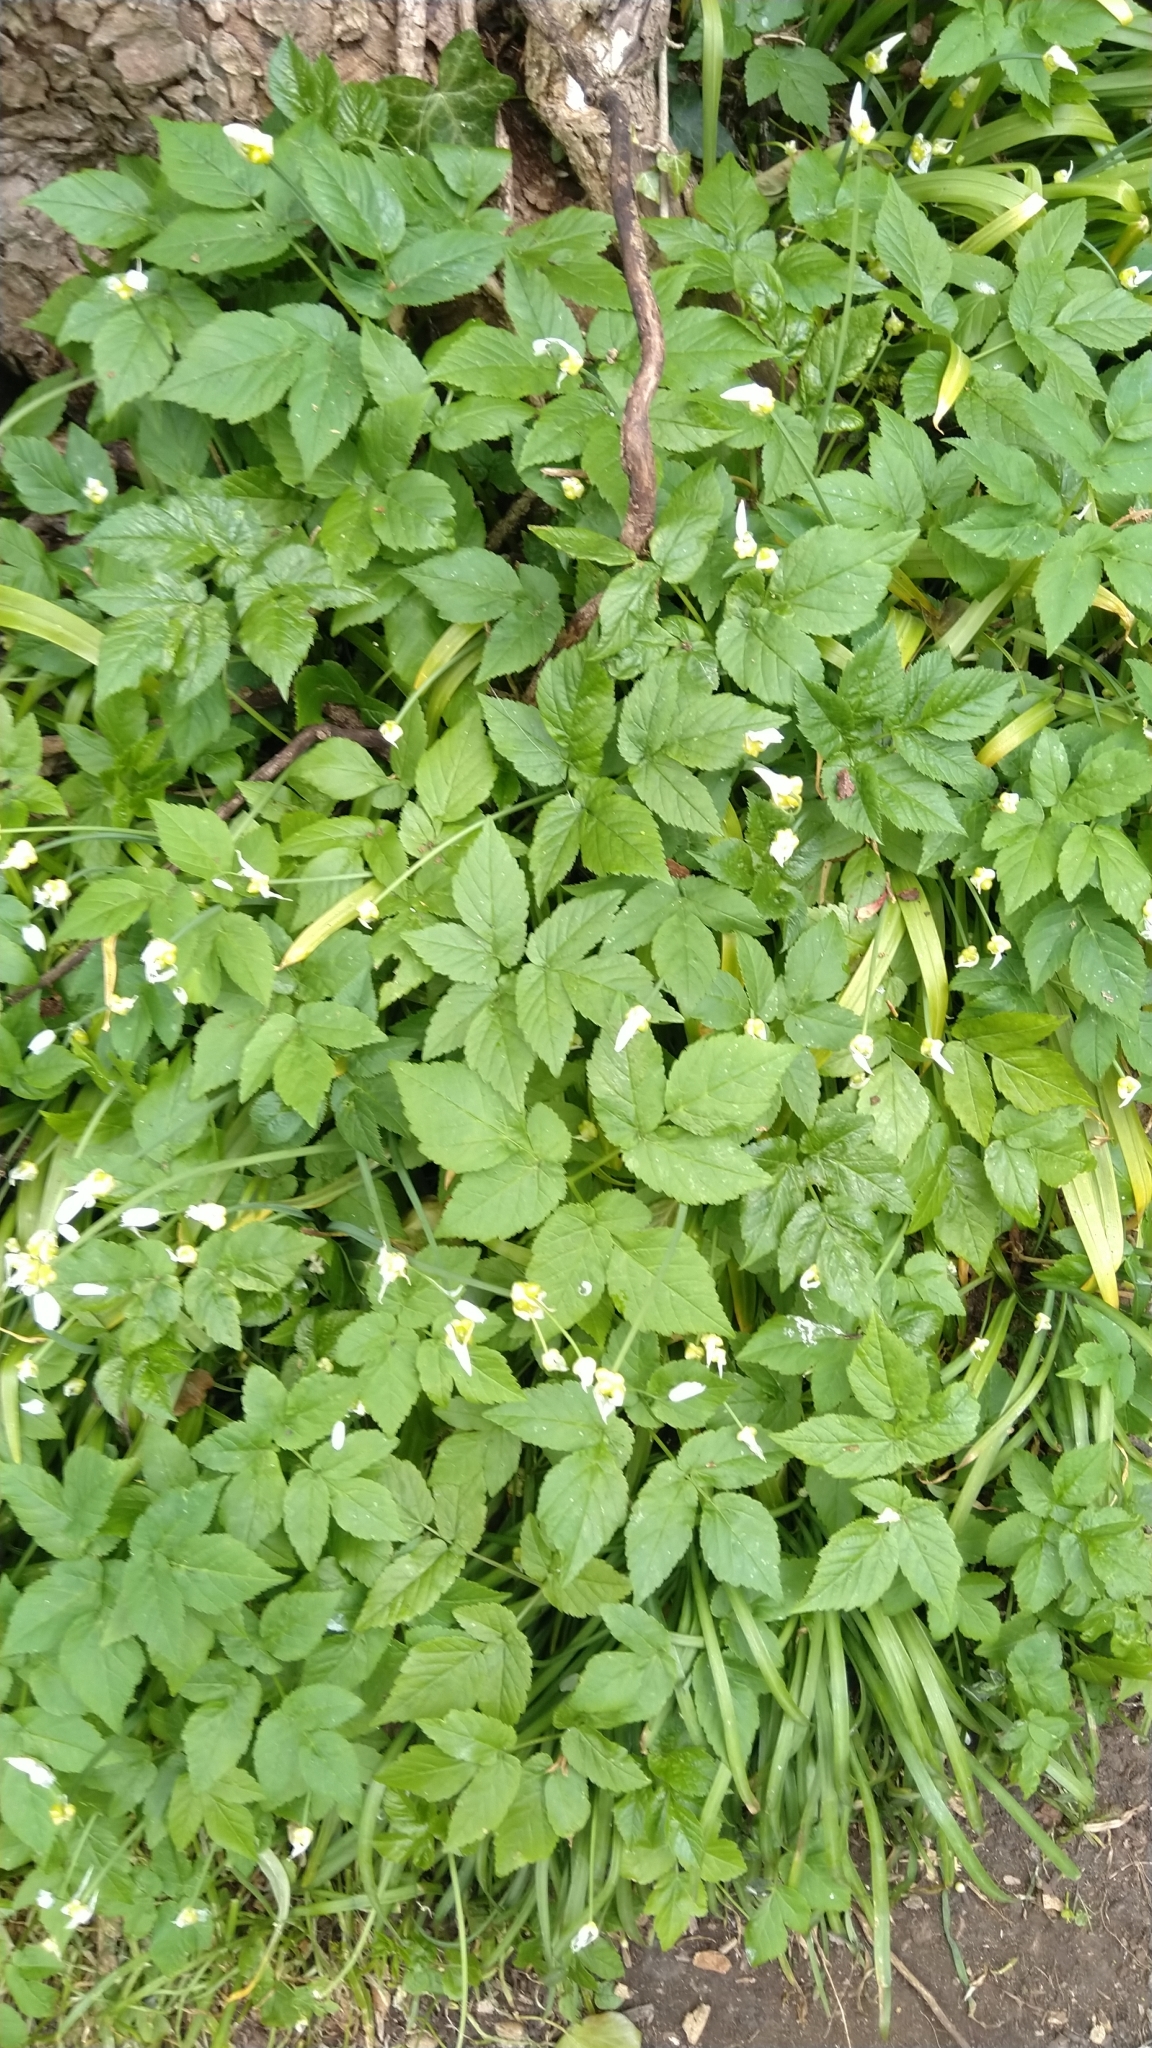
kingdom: Plantae
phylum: Tracheophyta
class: Magnoliopsida
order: Apiales
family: Apiaceae
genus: Aegopodium
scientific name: Aegopodium podagraria
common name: Ground-elder
